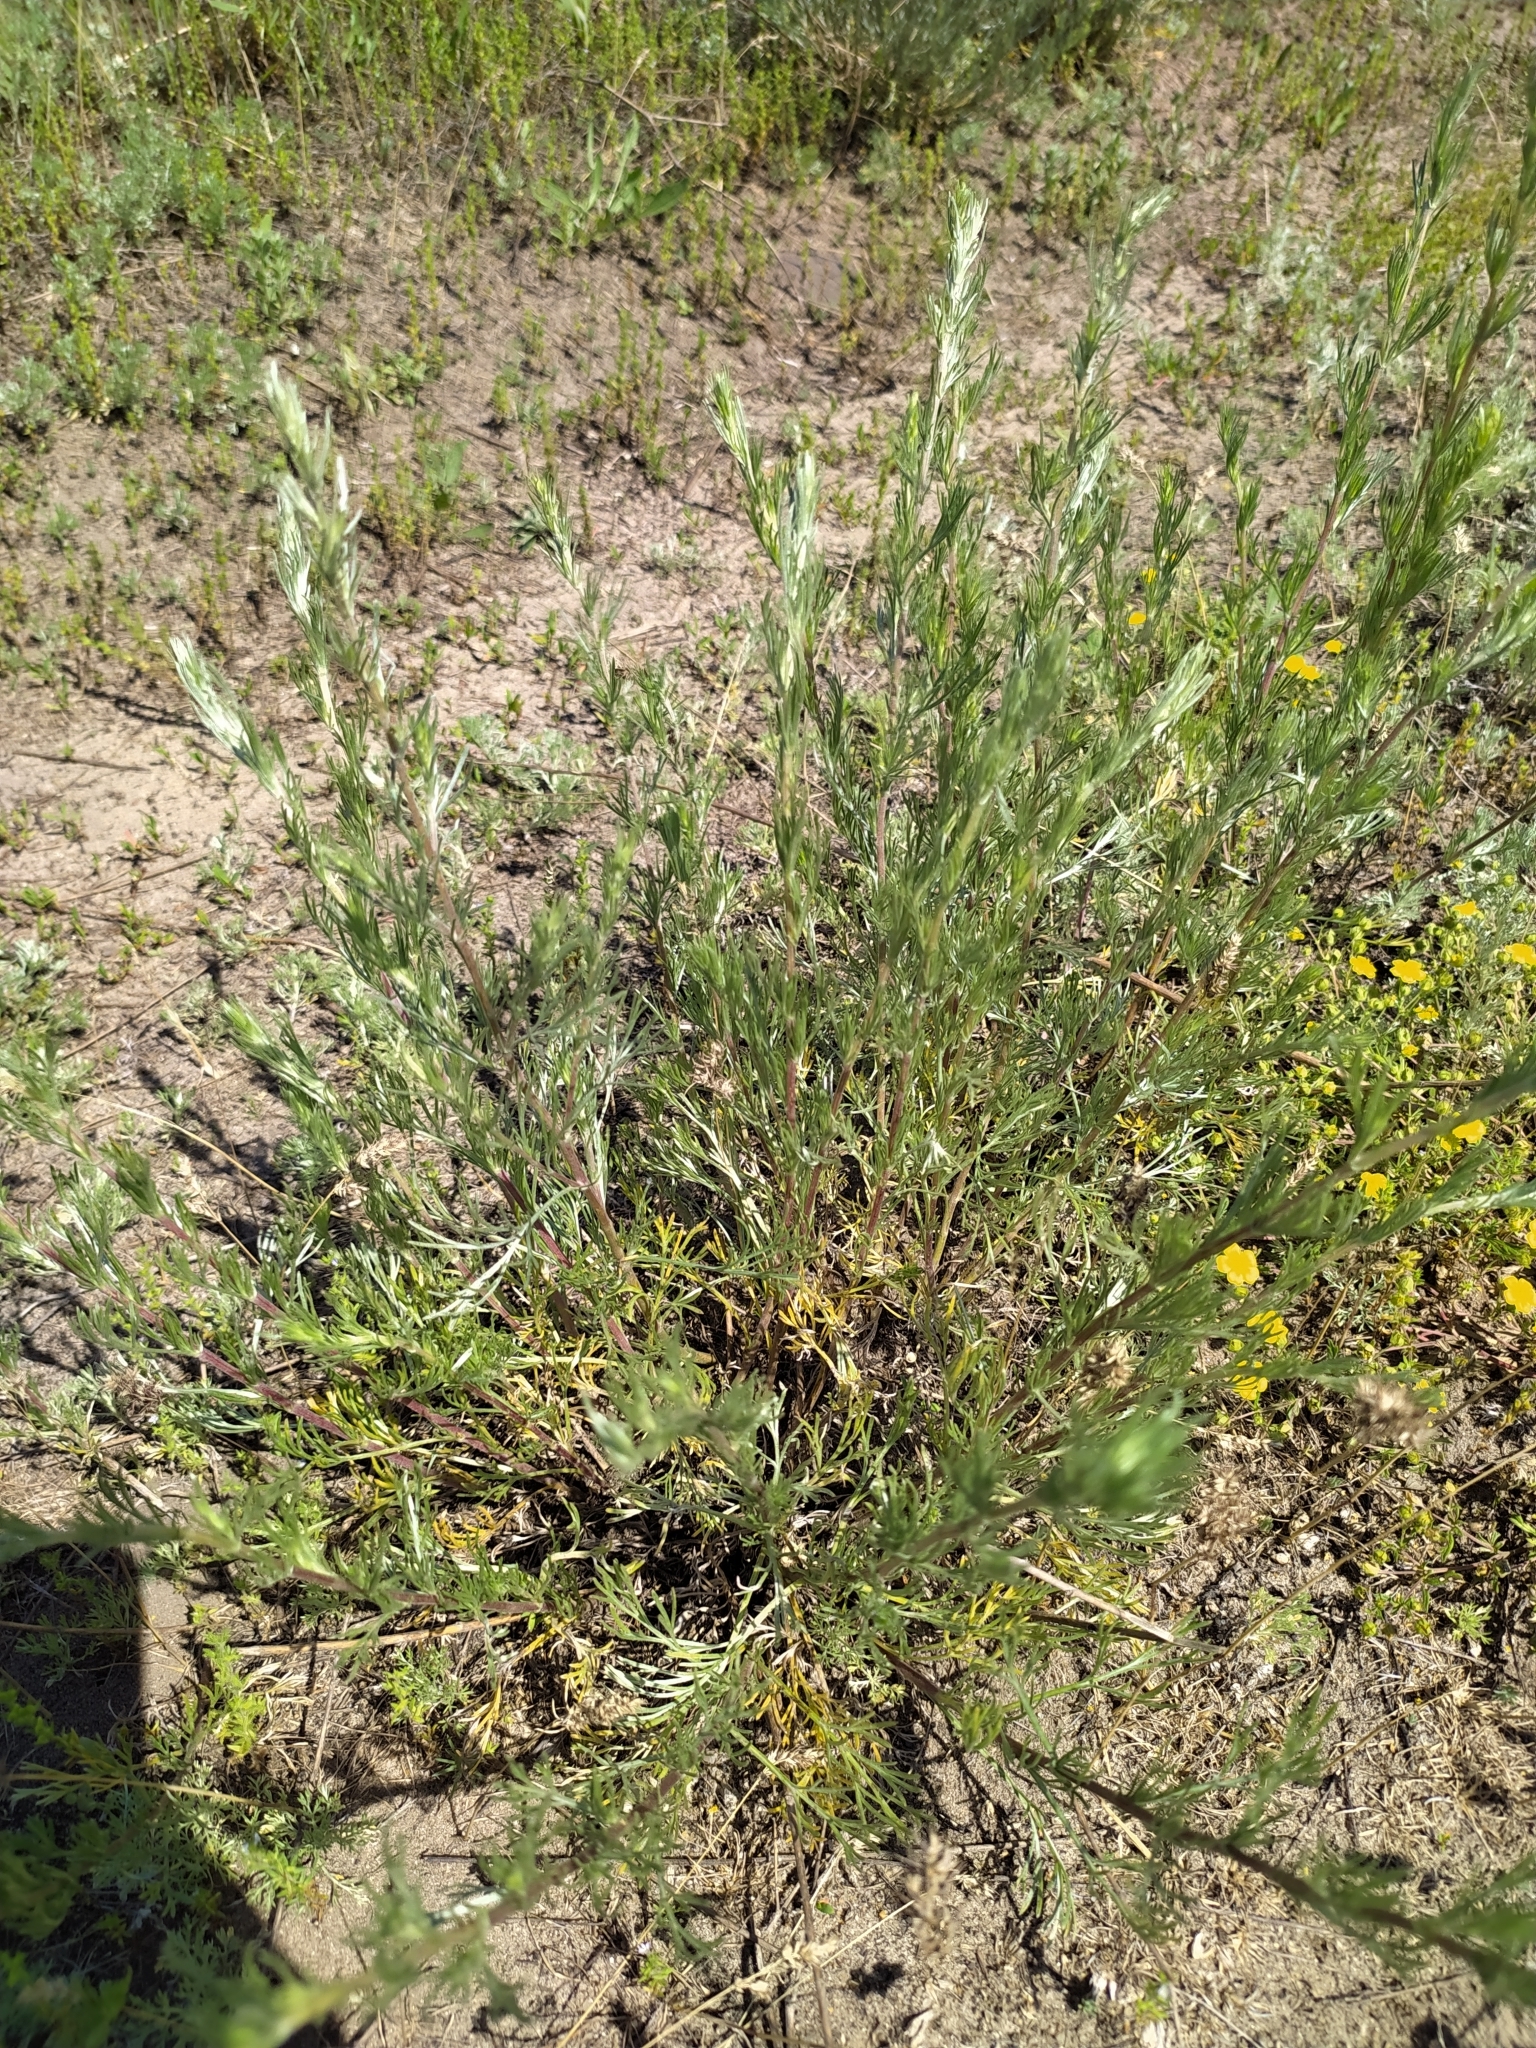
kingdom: Plantae
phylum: Tracheophyta
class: Magnoliopsida
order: Asterales
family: Asteraceae
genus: Artemisia
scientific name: Artemisia campestris
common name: Field wormwood
